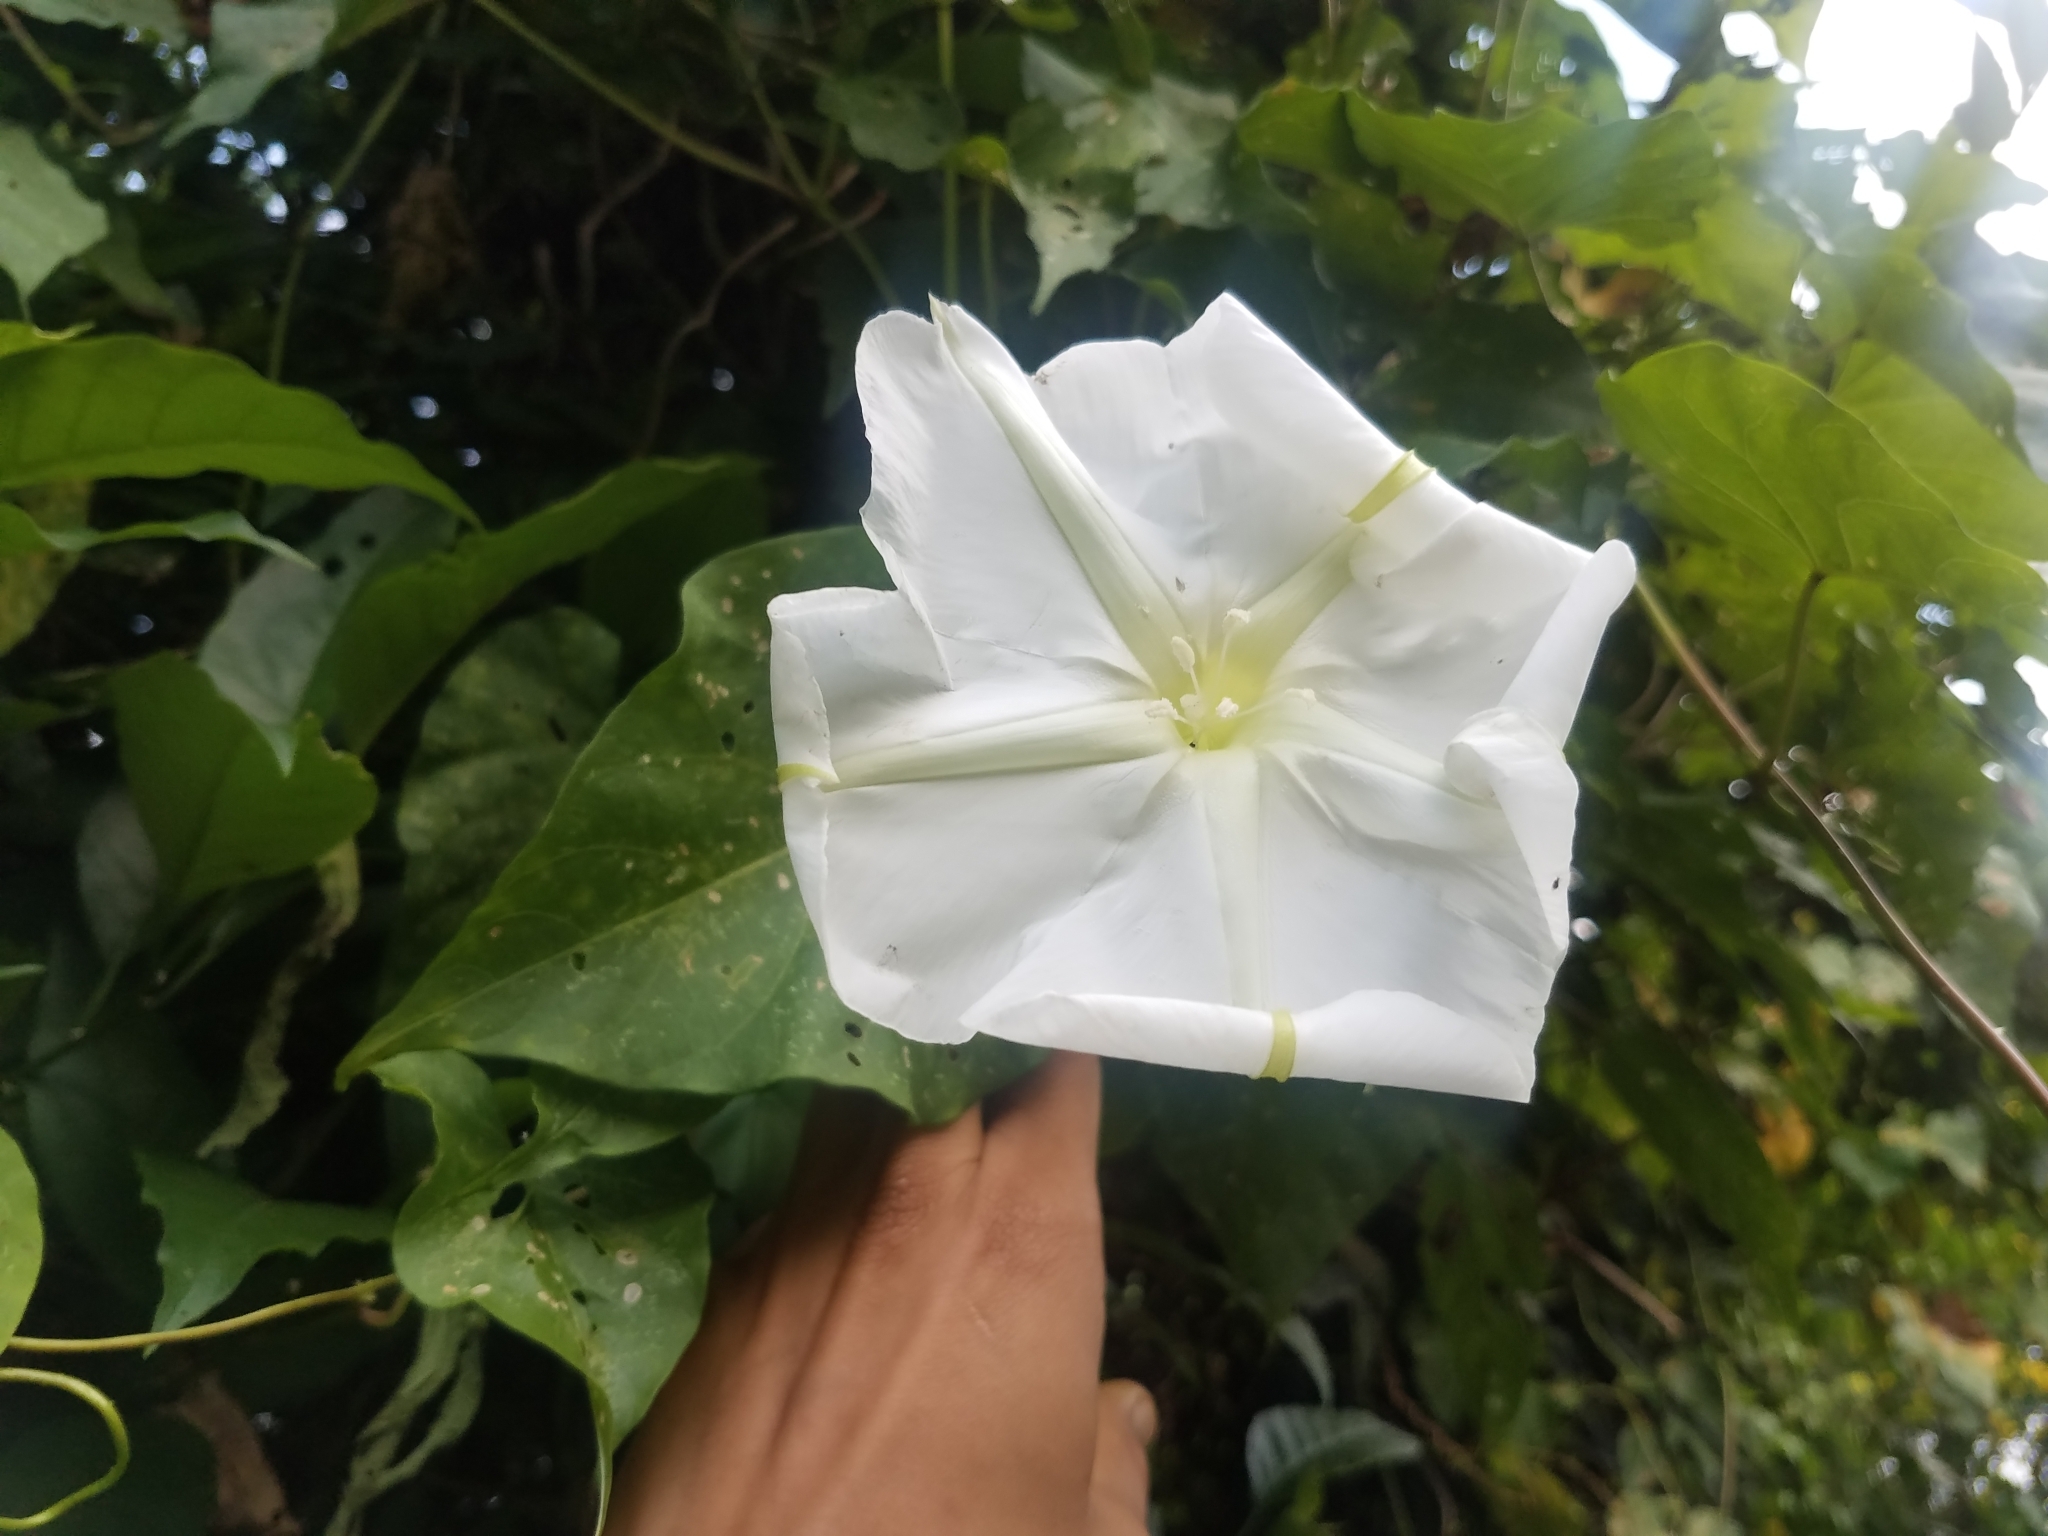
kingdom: Plantae
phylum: Tracheophyta
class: Magnoliopsida
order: Solanales
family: Convolvulaceae
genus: Ipomoea
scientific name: Ipomoea alba
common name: Moonflower
